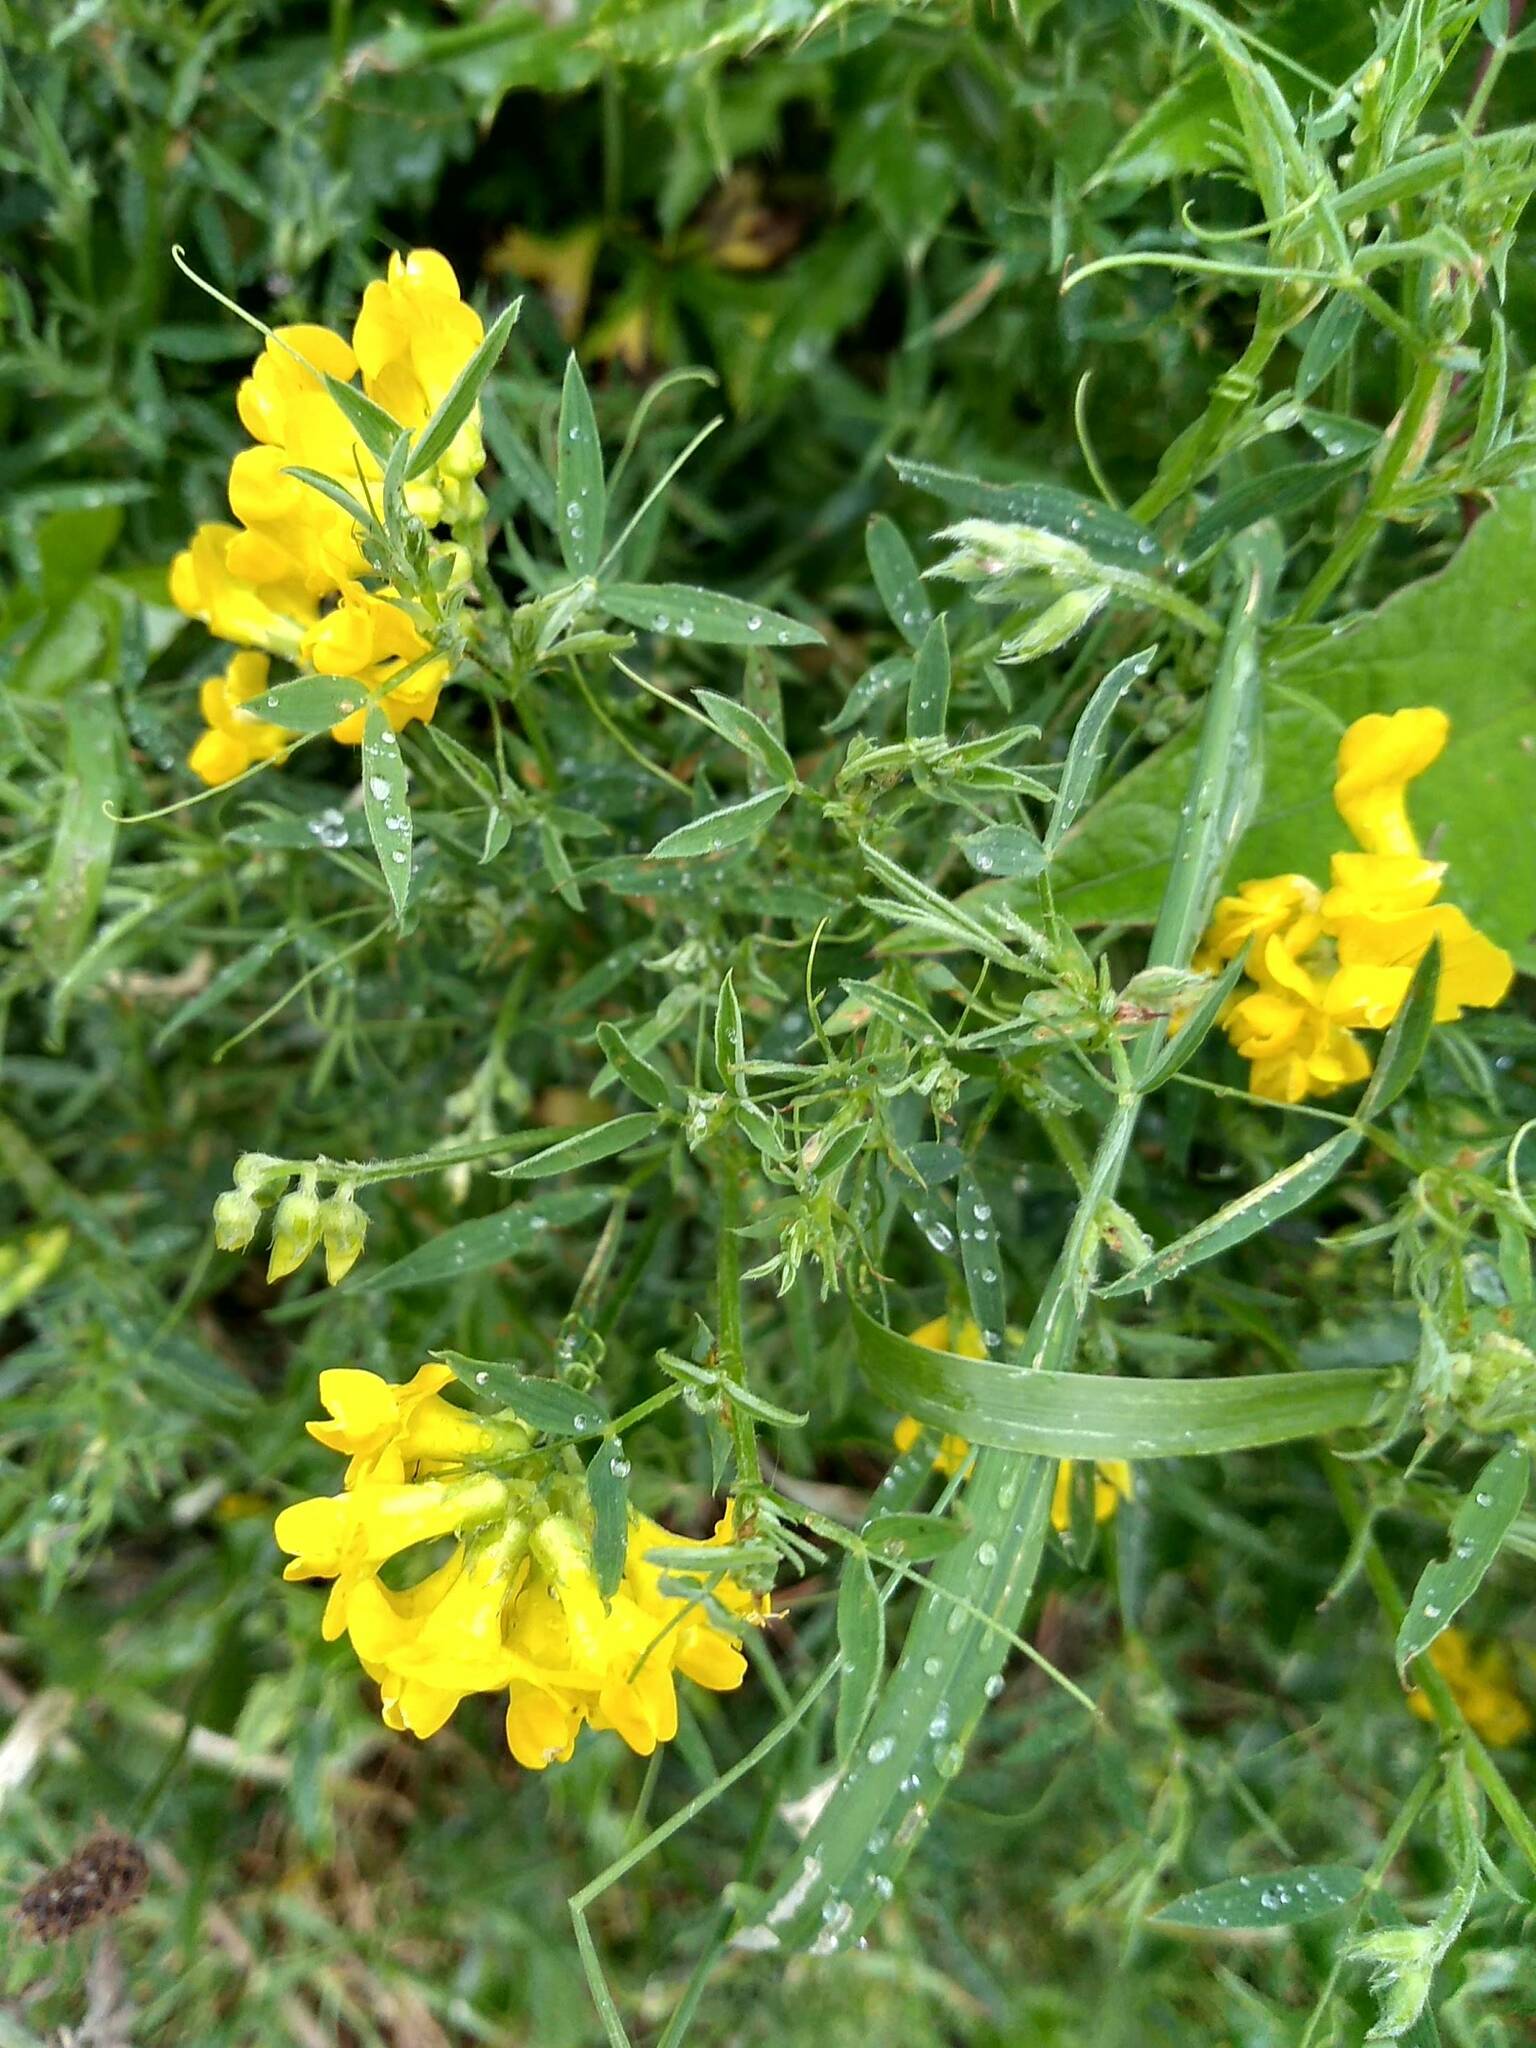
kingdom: Plantae
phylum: Tracheophyta
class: Magnoliopsida
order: Fabales
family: Fabaceae
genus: Lathyrus
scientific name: Lathyrus pratensis
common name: Meadow vetchling
